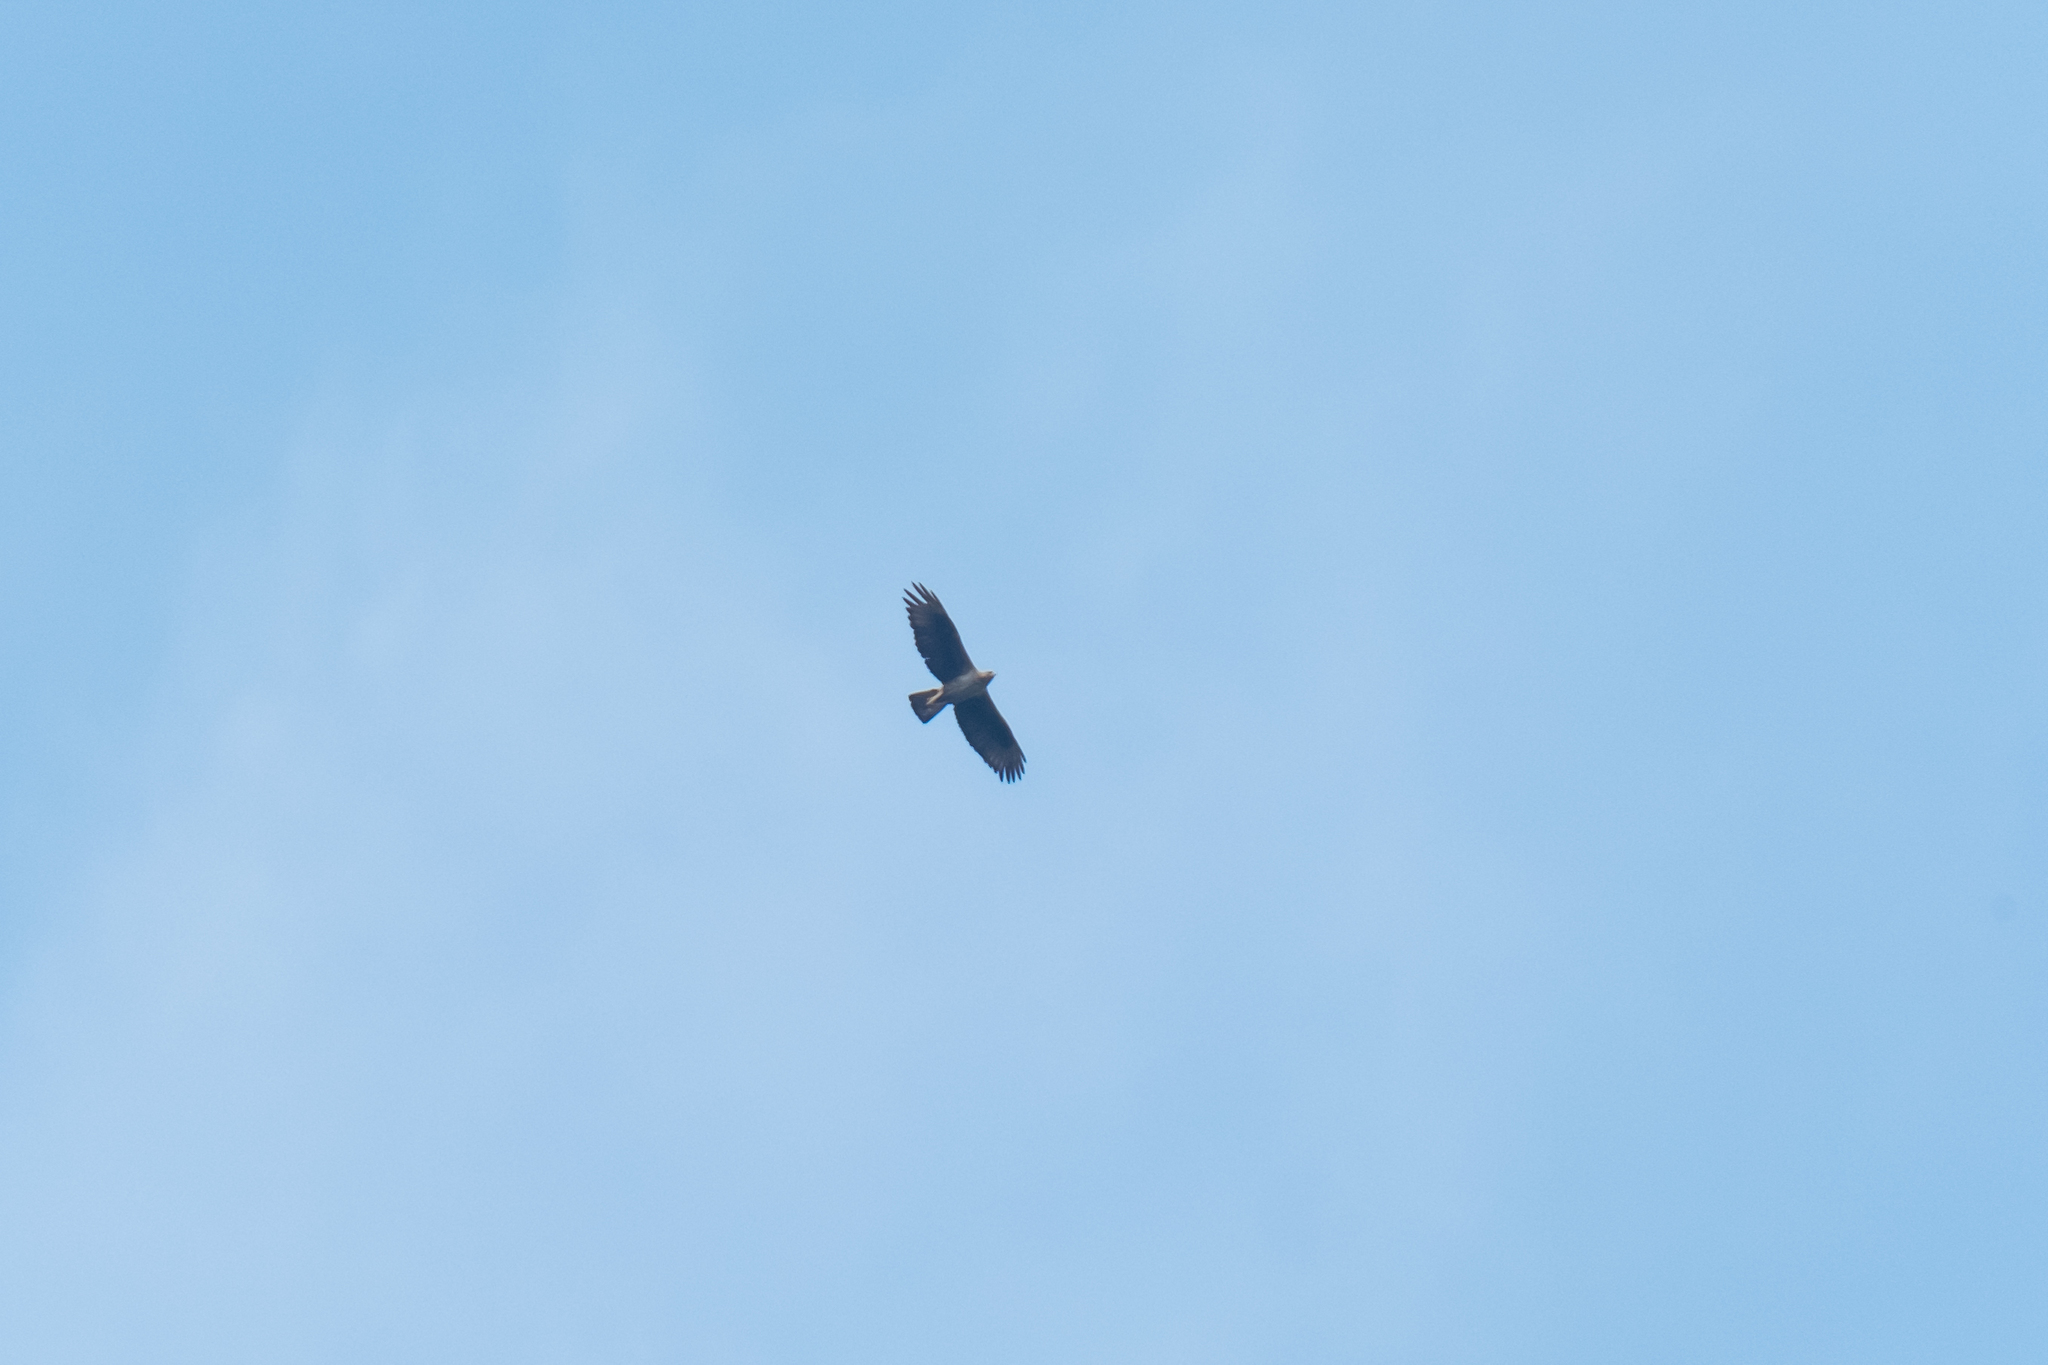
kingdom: Animalia
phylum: Chordata
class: Aves
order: Accipitriformes
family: Accipitridae
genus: Aquila
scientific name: Aquila fasciata
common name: Bonelli's eagle
